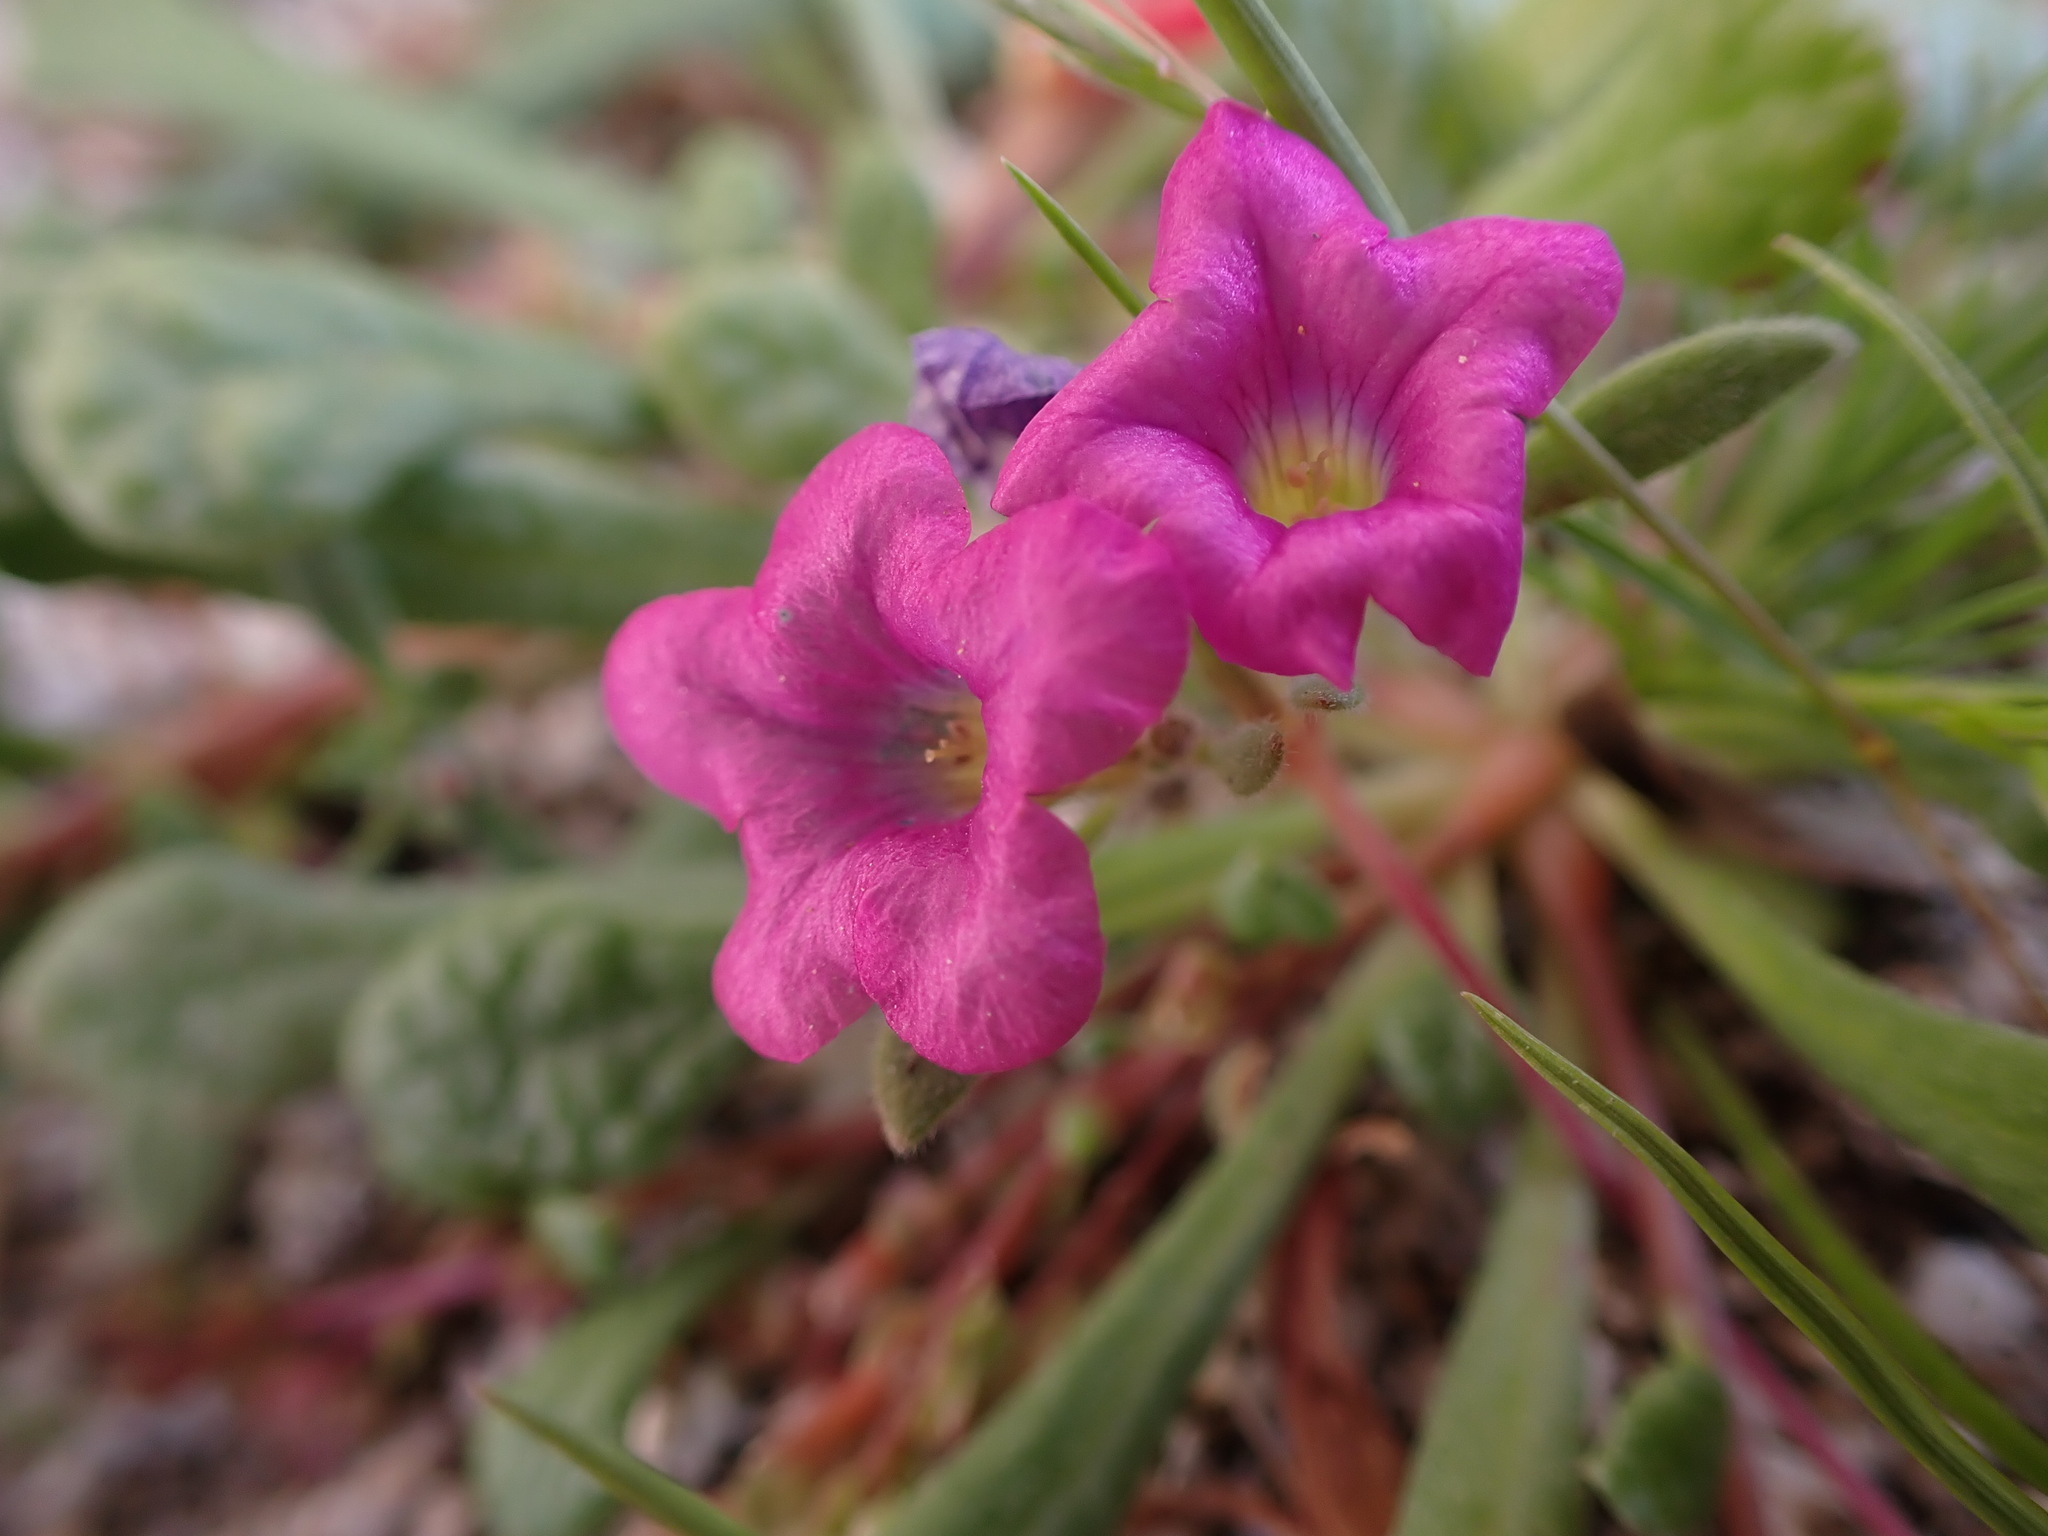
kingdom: Plantae
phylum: Tracheophyta
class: Magnoliopsida
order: Boraginales
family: Namaceae
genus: Nama
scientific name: Nama demissa
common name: Leafy nama
